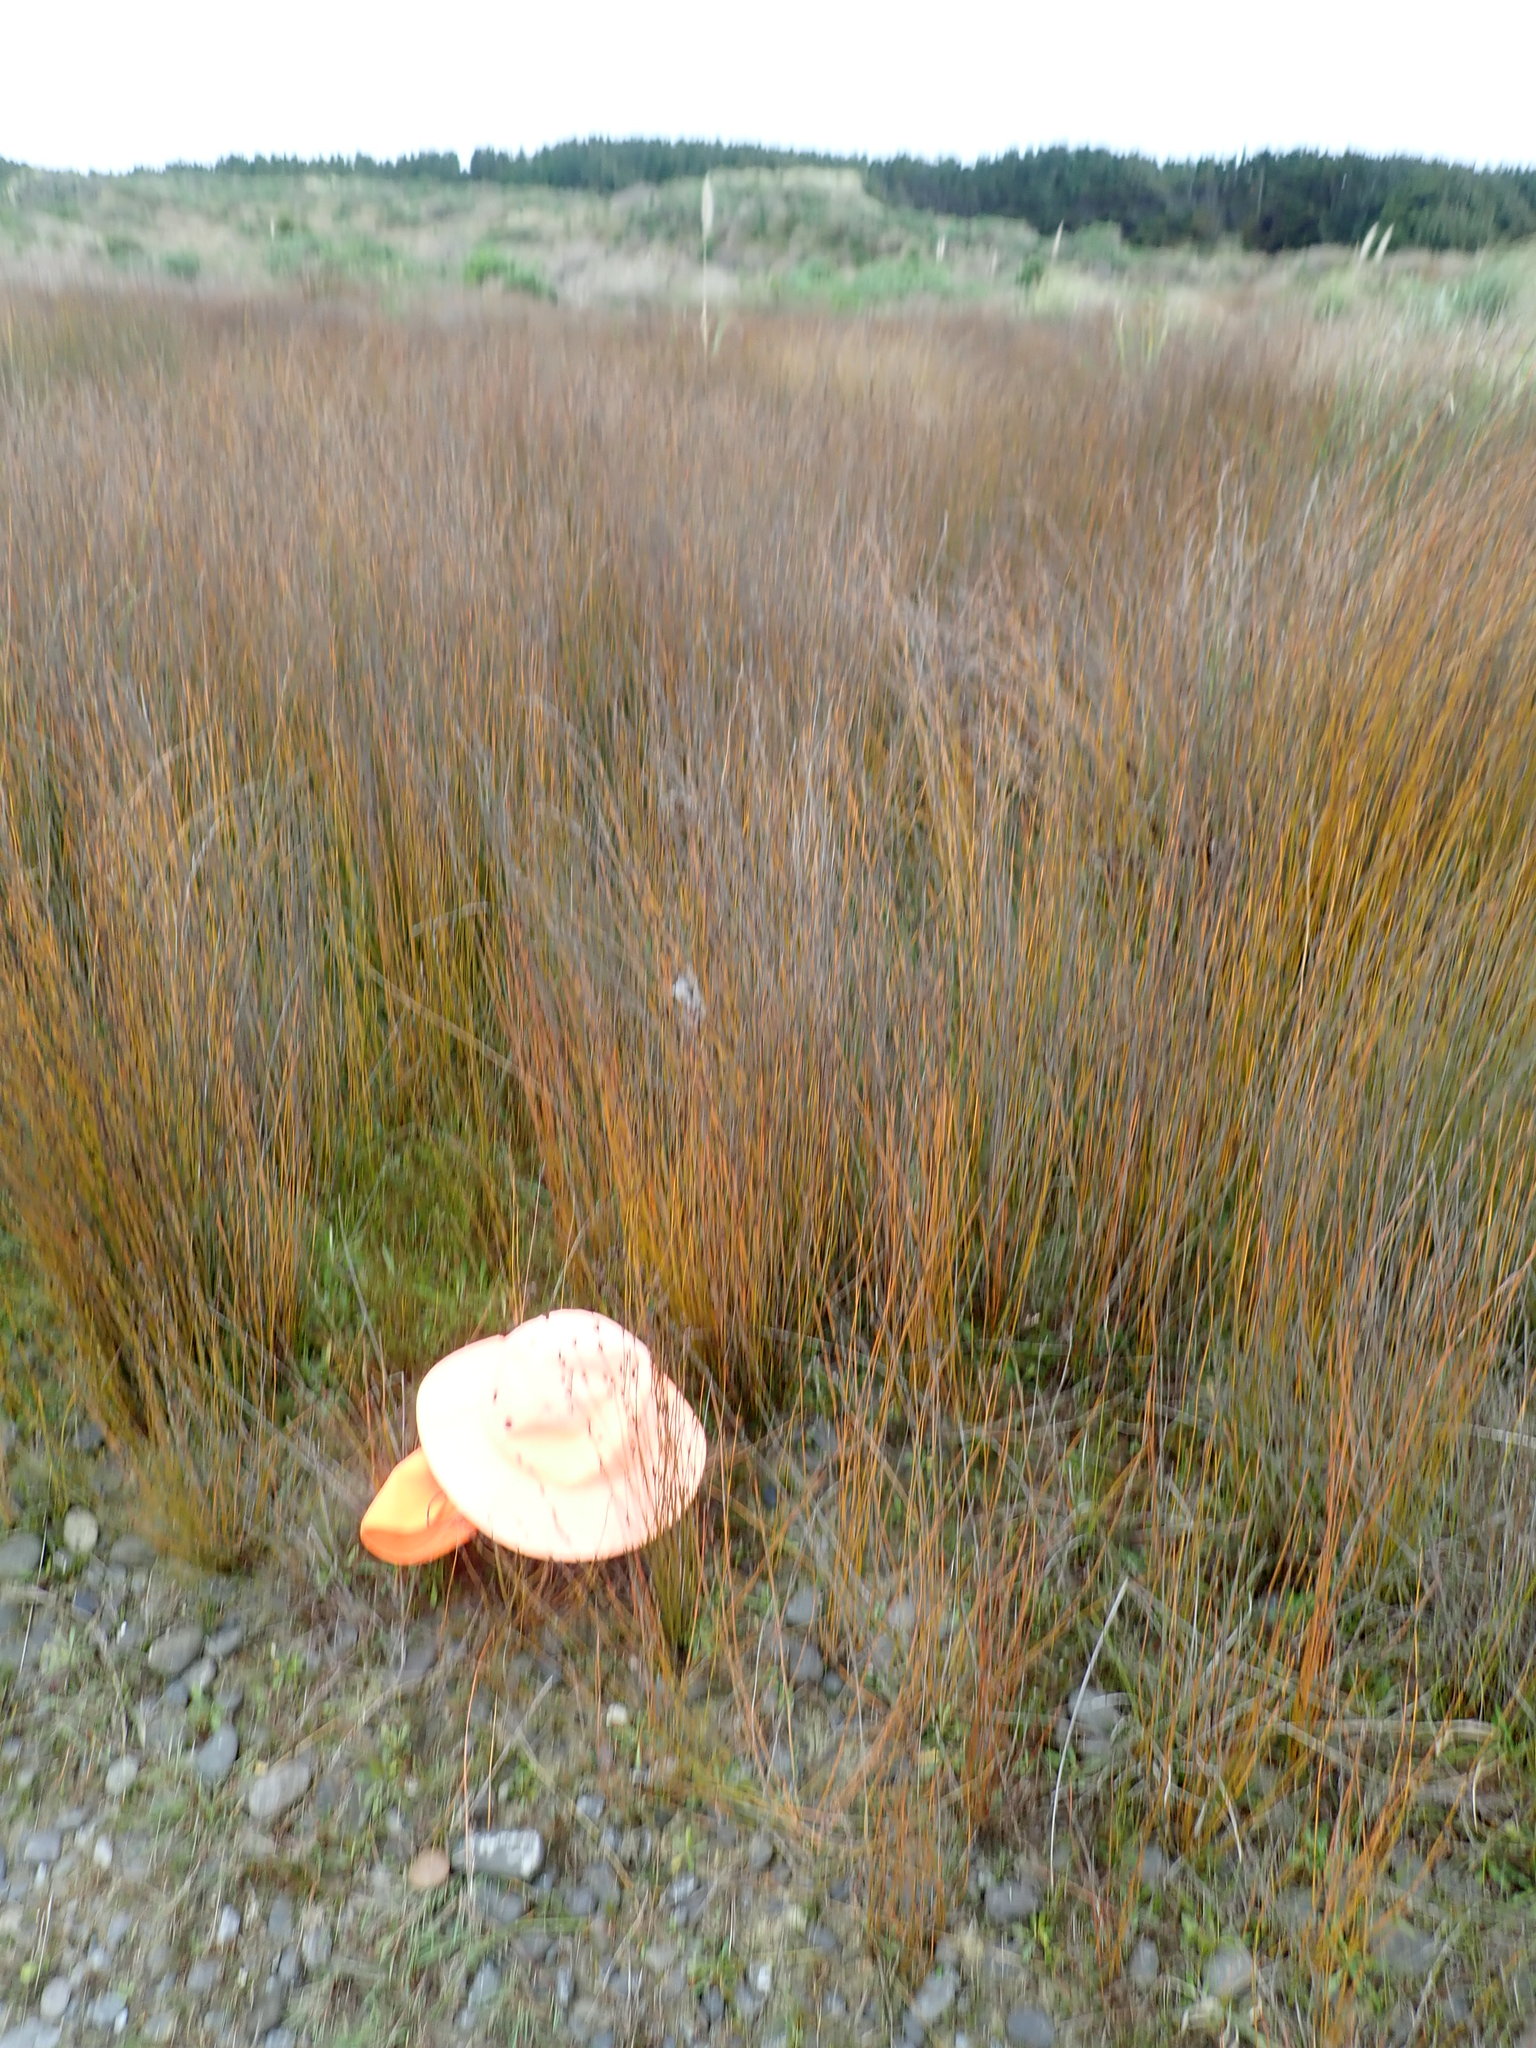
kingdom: Animalia
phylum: Arthropoda
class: Arachnida
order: Araneae
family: Pisauridae
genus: Dolomedes
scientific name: Dolomedes minor
